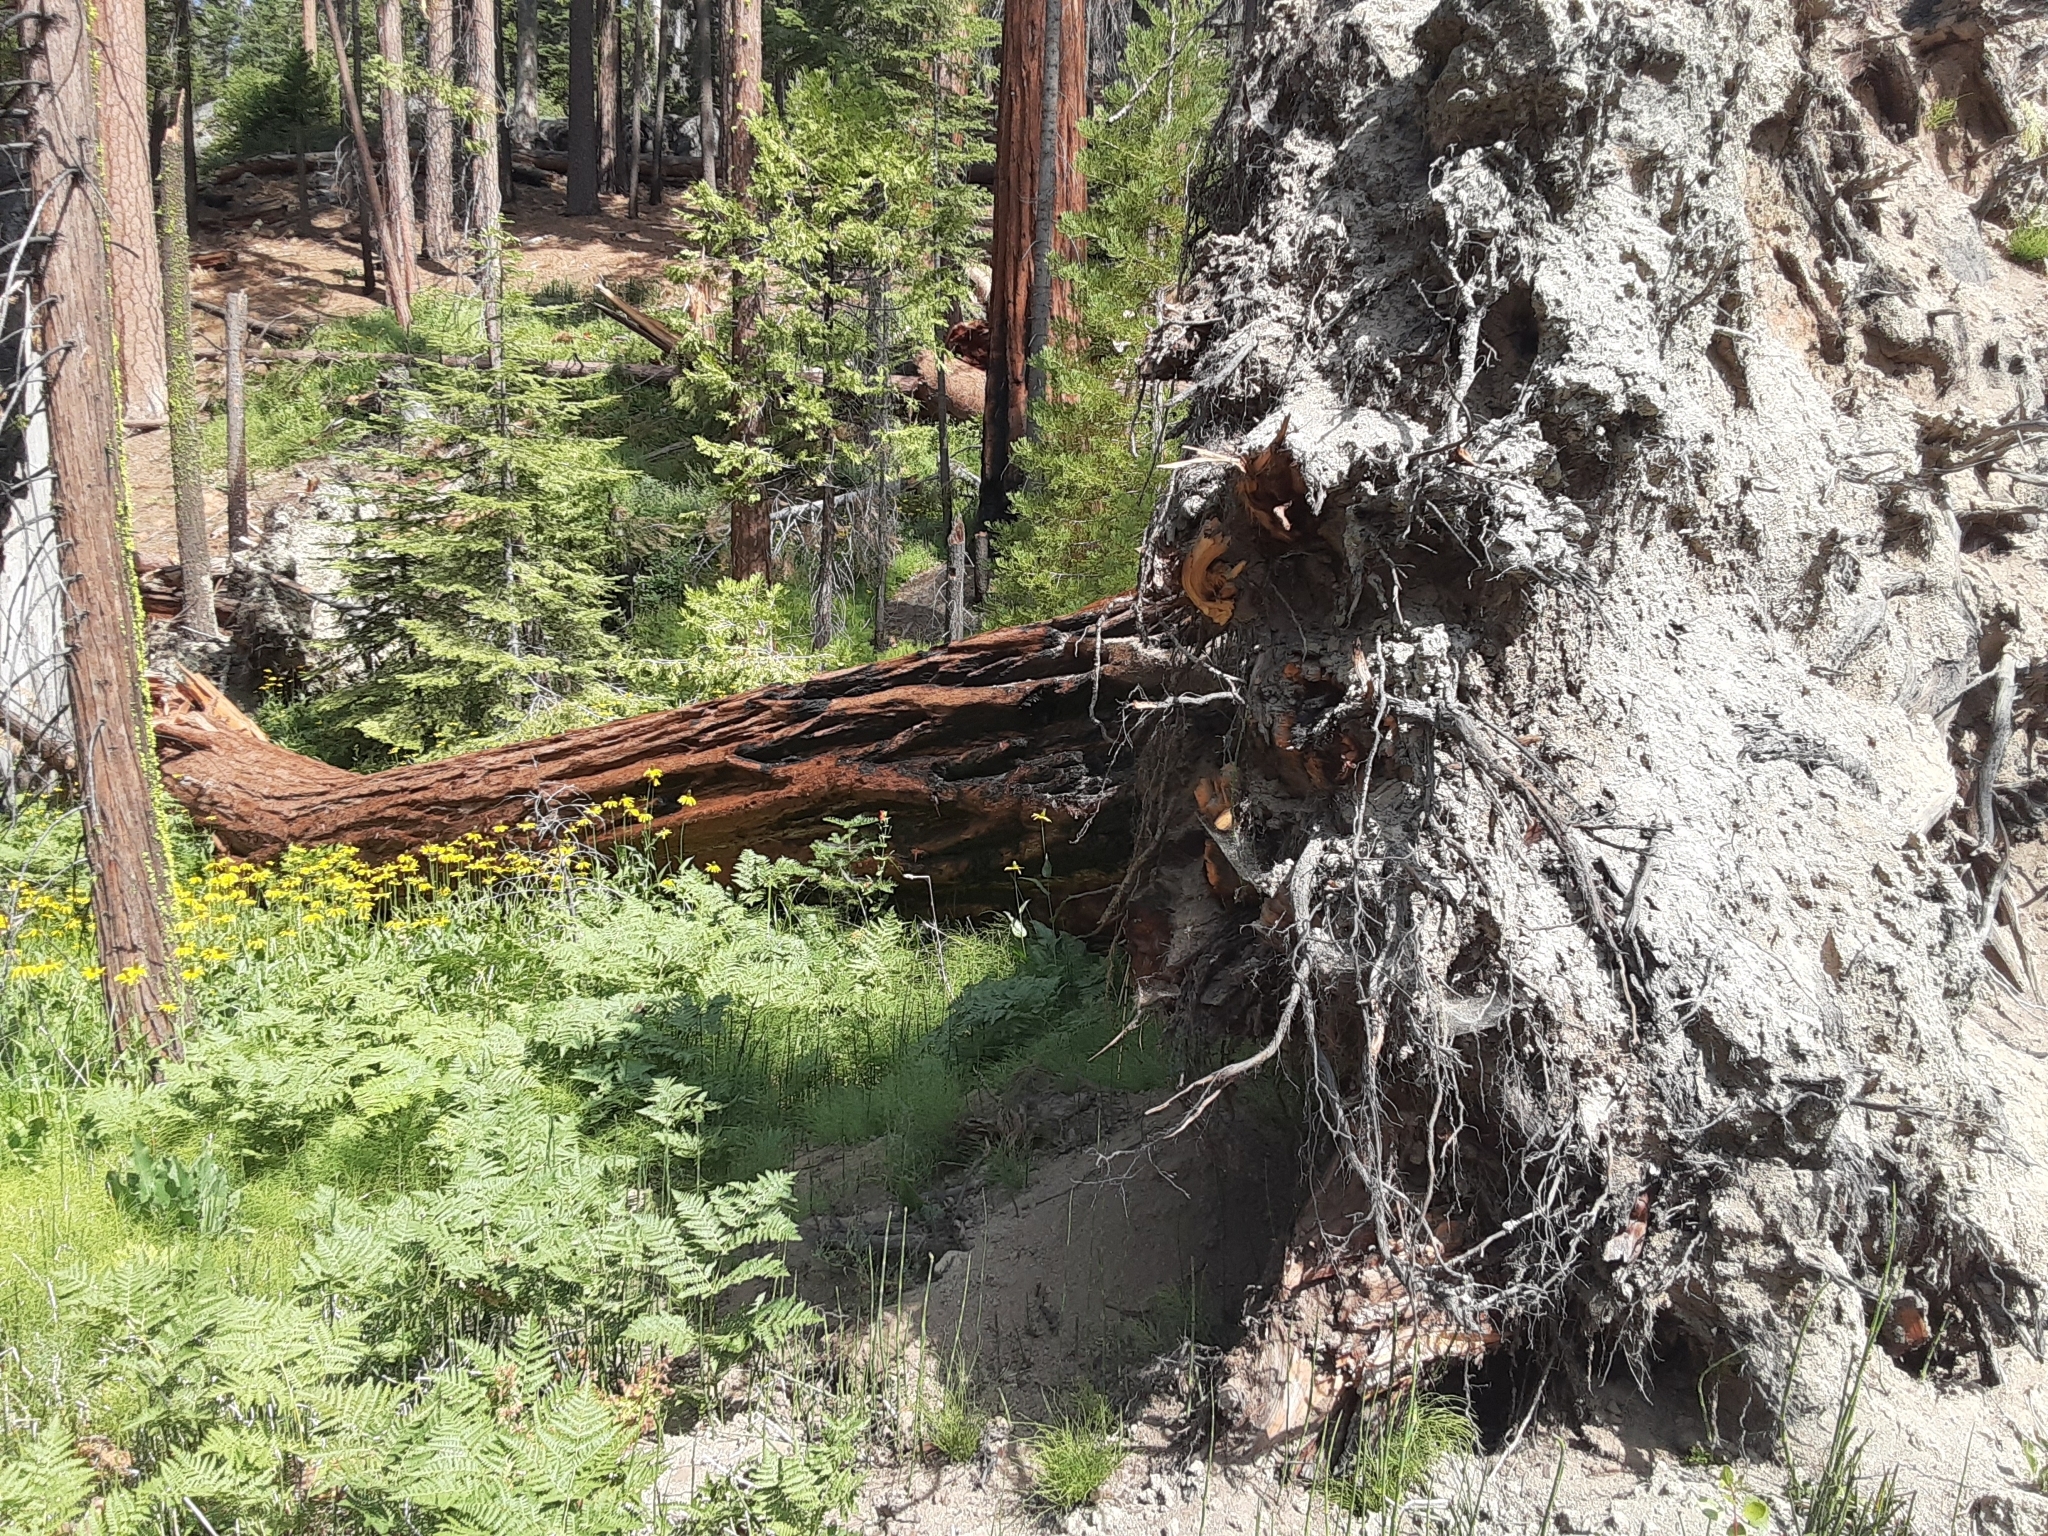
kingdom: Plantae
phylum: Tracheophyta
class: Pinopsida
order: Pinales
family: Cupressaceae
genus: Sequoiadendron
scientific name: Sequoiadendron giganteum
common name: Wellingtonia
